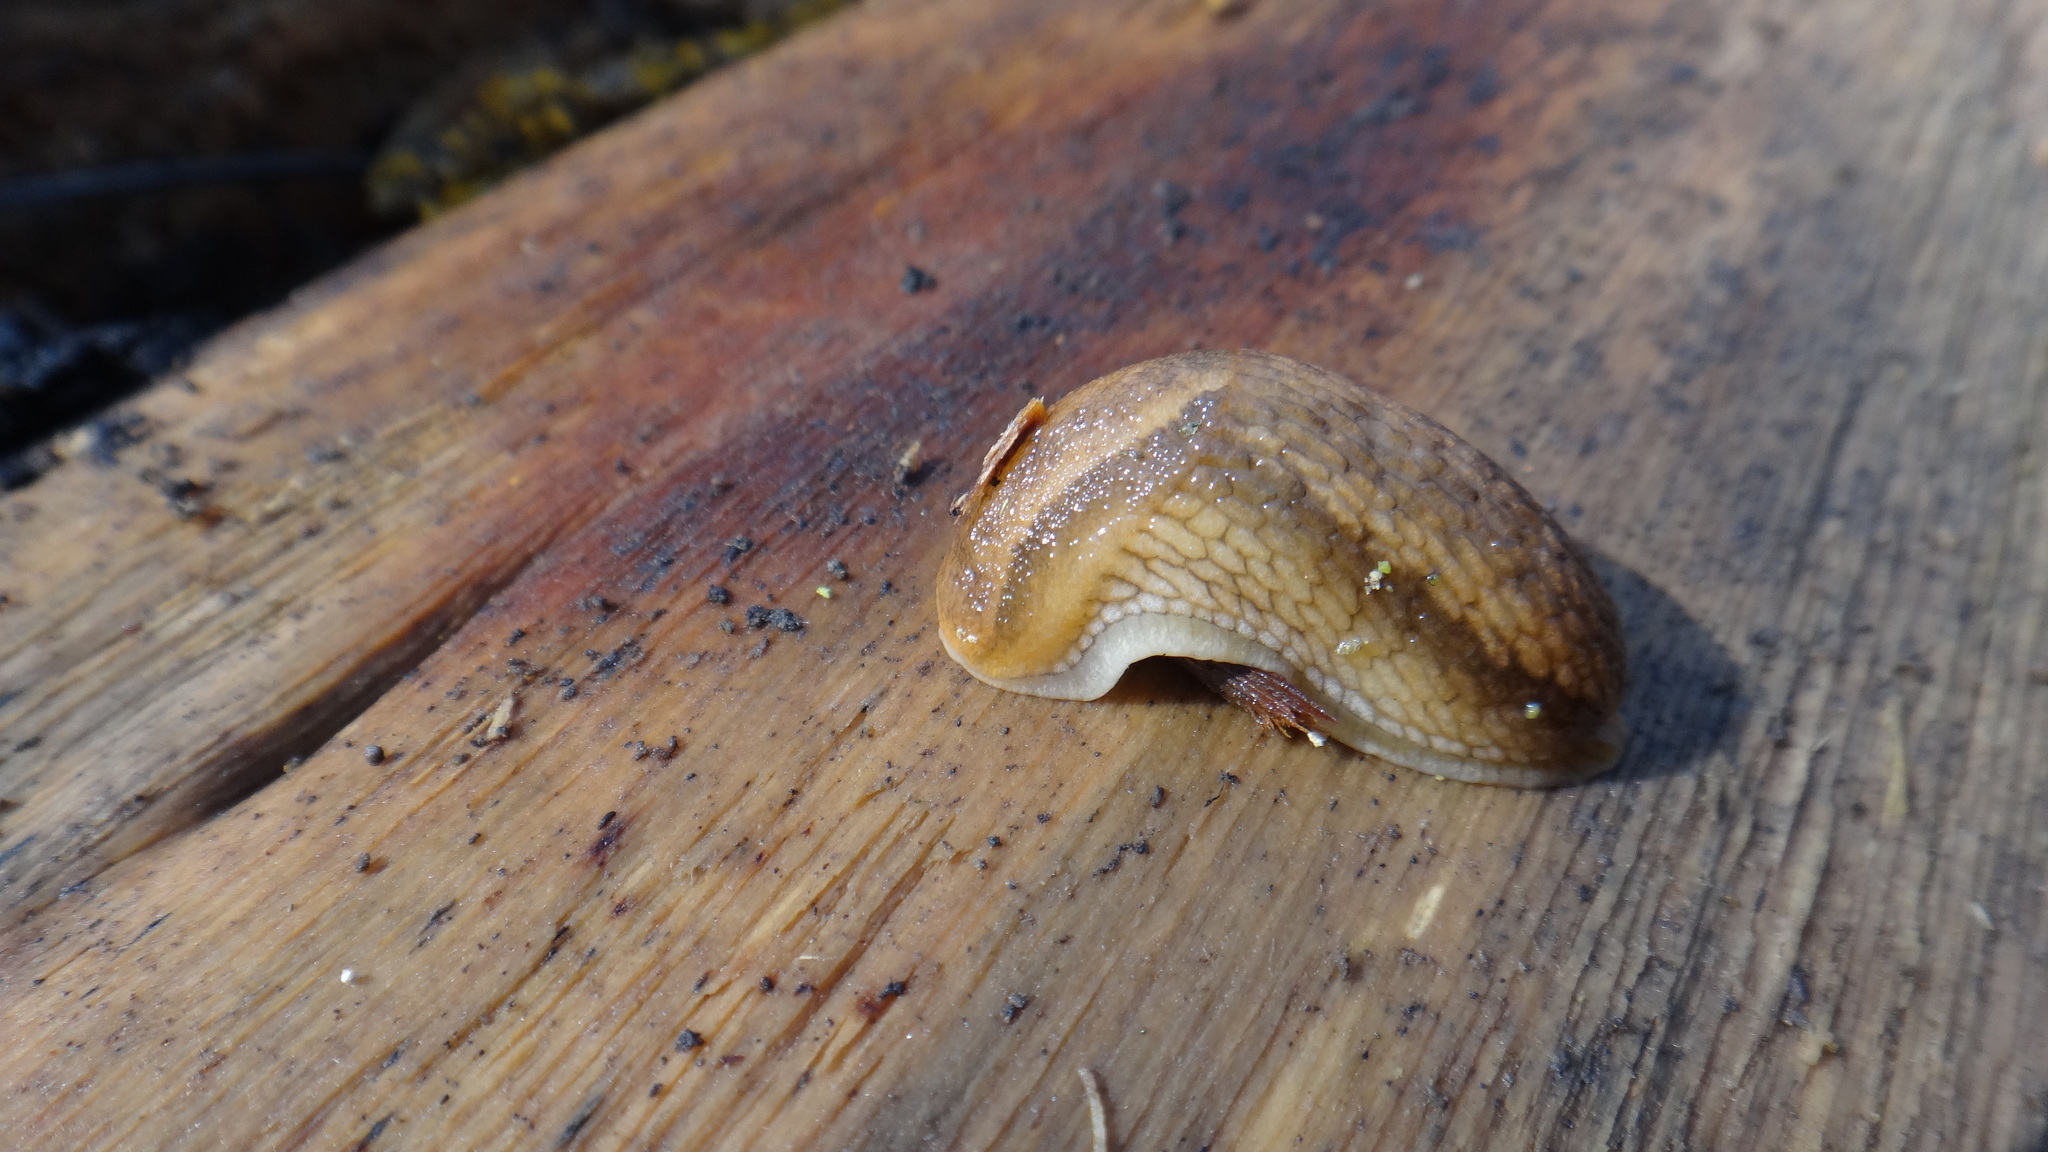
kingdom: Animalia
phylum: Mollusca
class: Gastropoda
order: Stylommatophora
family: Arionidae
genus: Arion
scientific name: Arion fuscus
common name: Northern dusky slug
